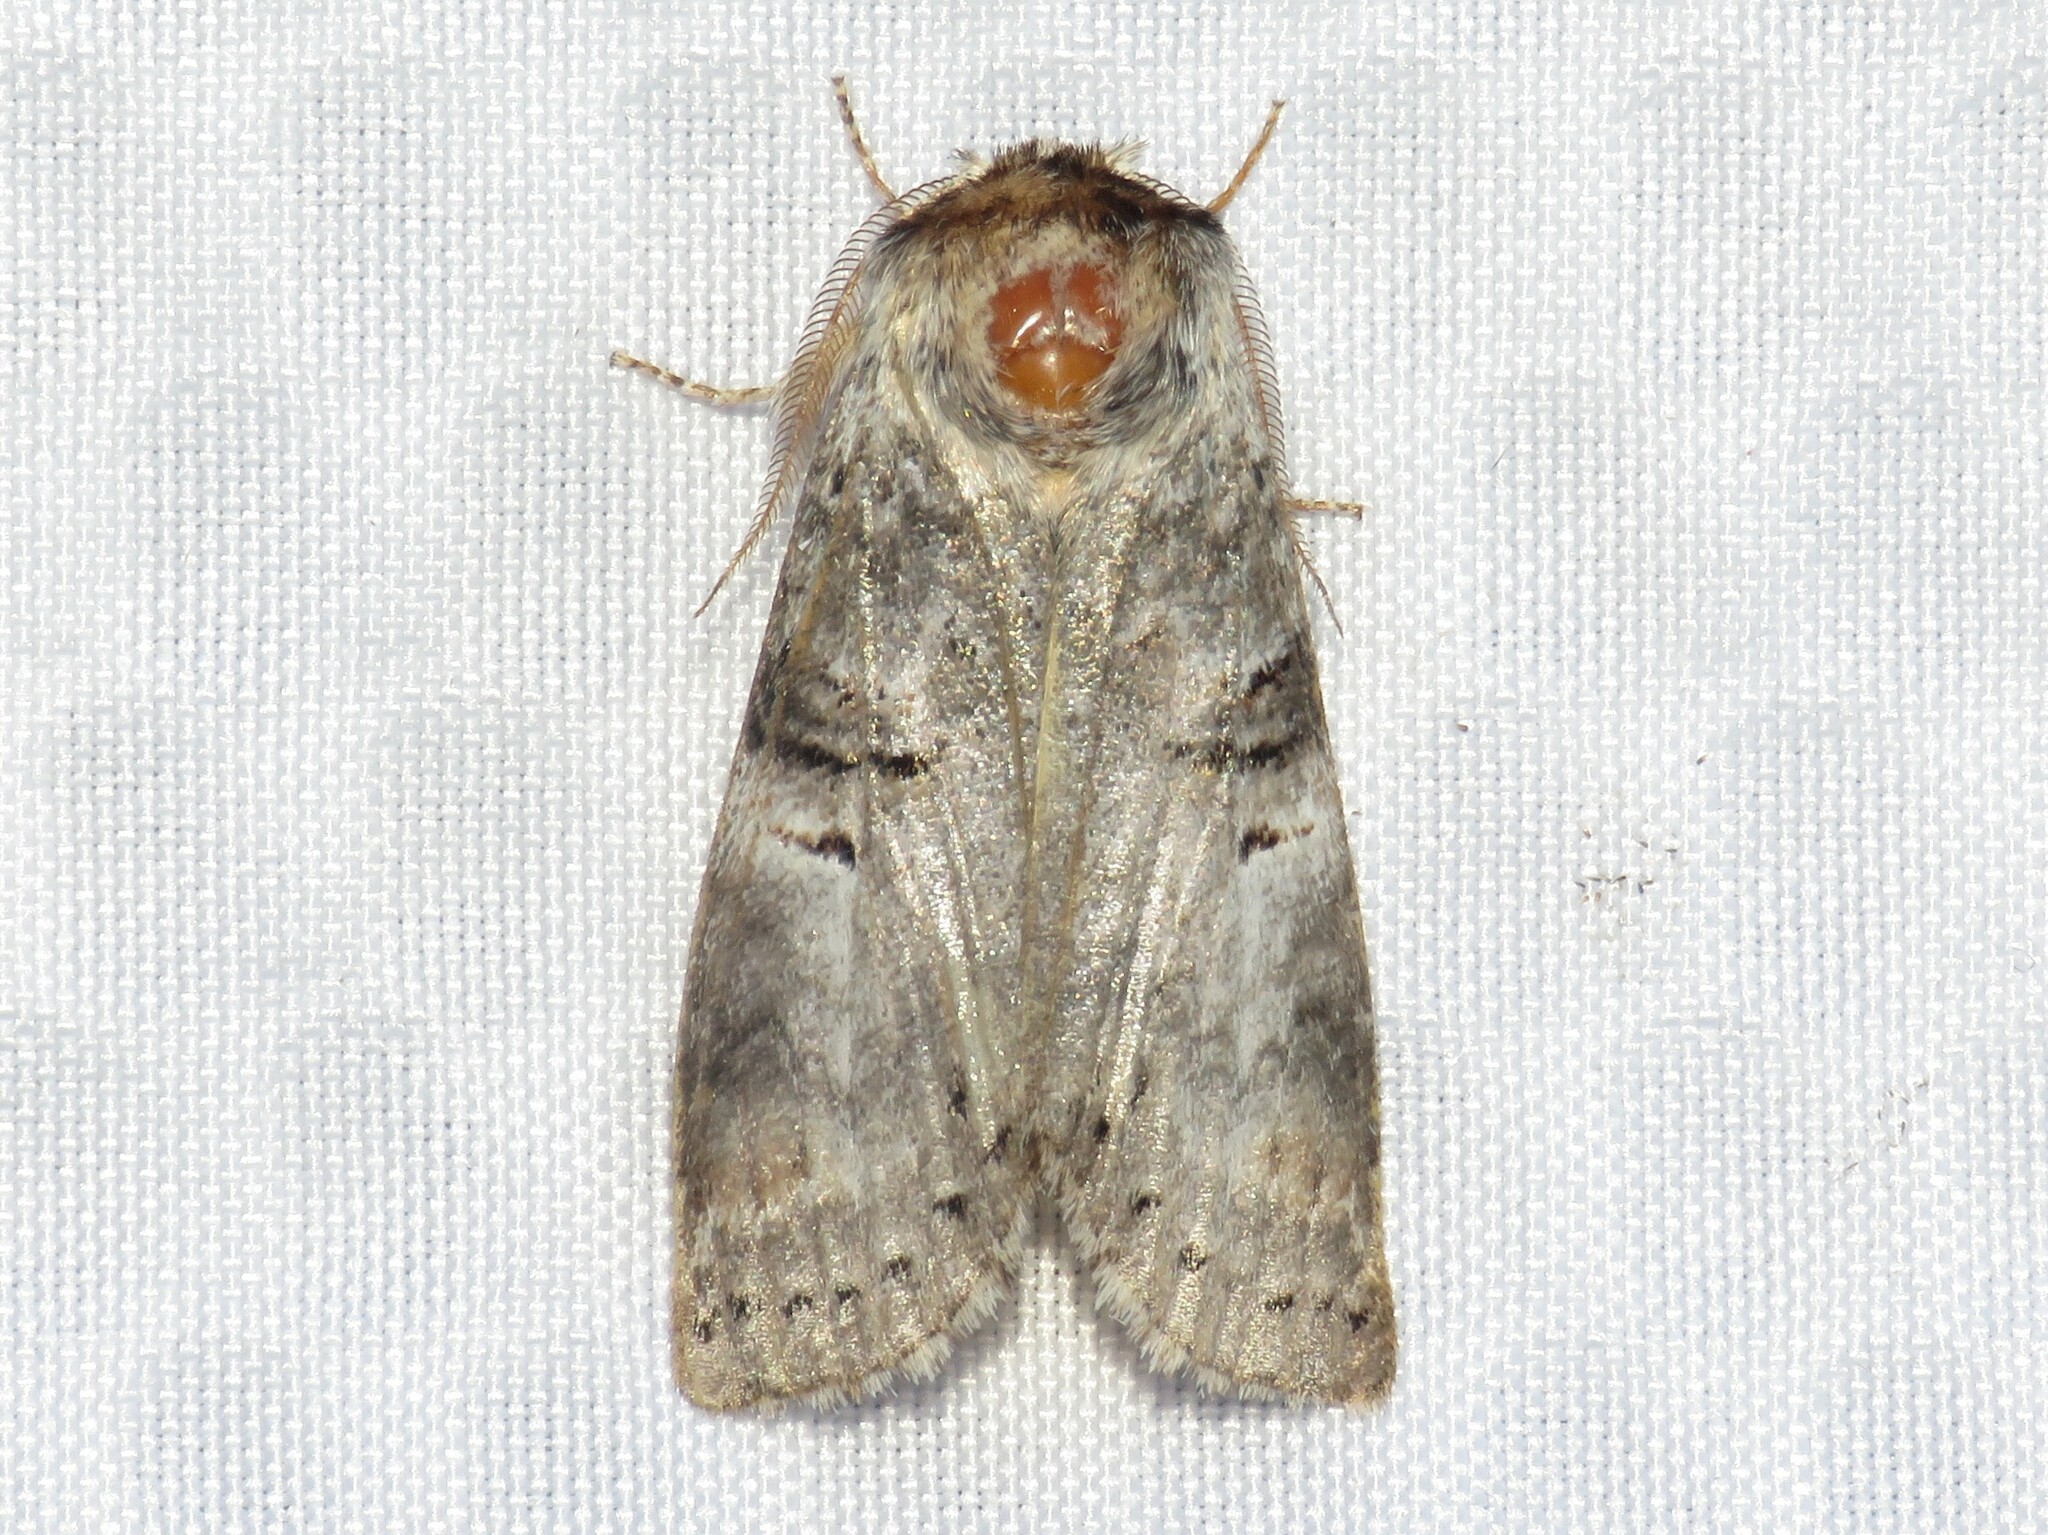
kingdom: Animalia
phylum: Arthropoda
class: Insecta
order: Lepidoptera
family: Notodontidae
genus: Ellida
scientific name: Ellida caniplaga
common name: Linden prominent
